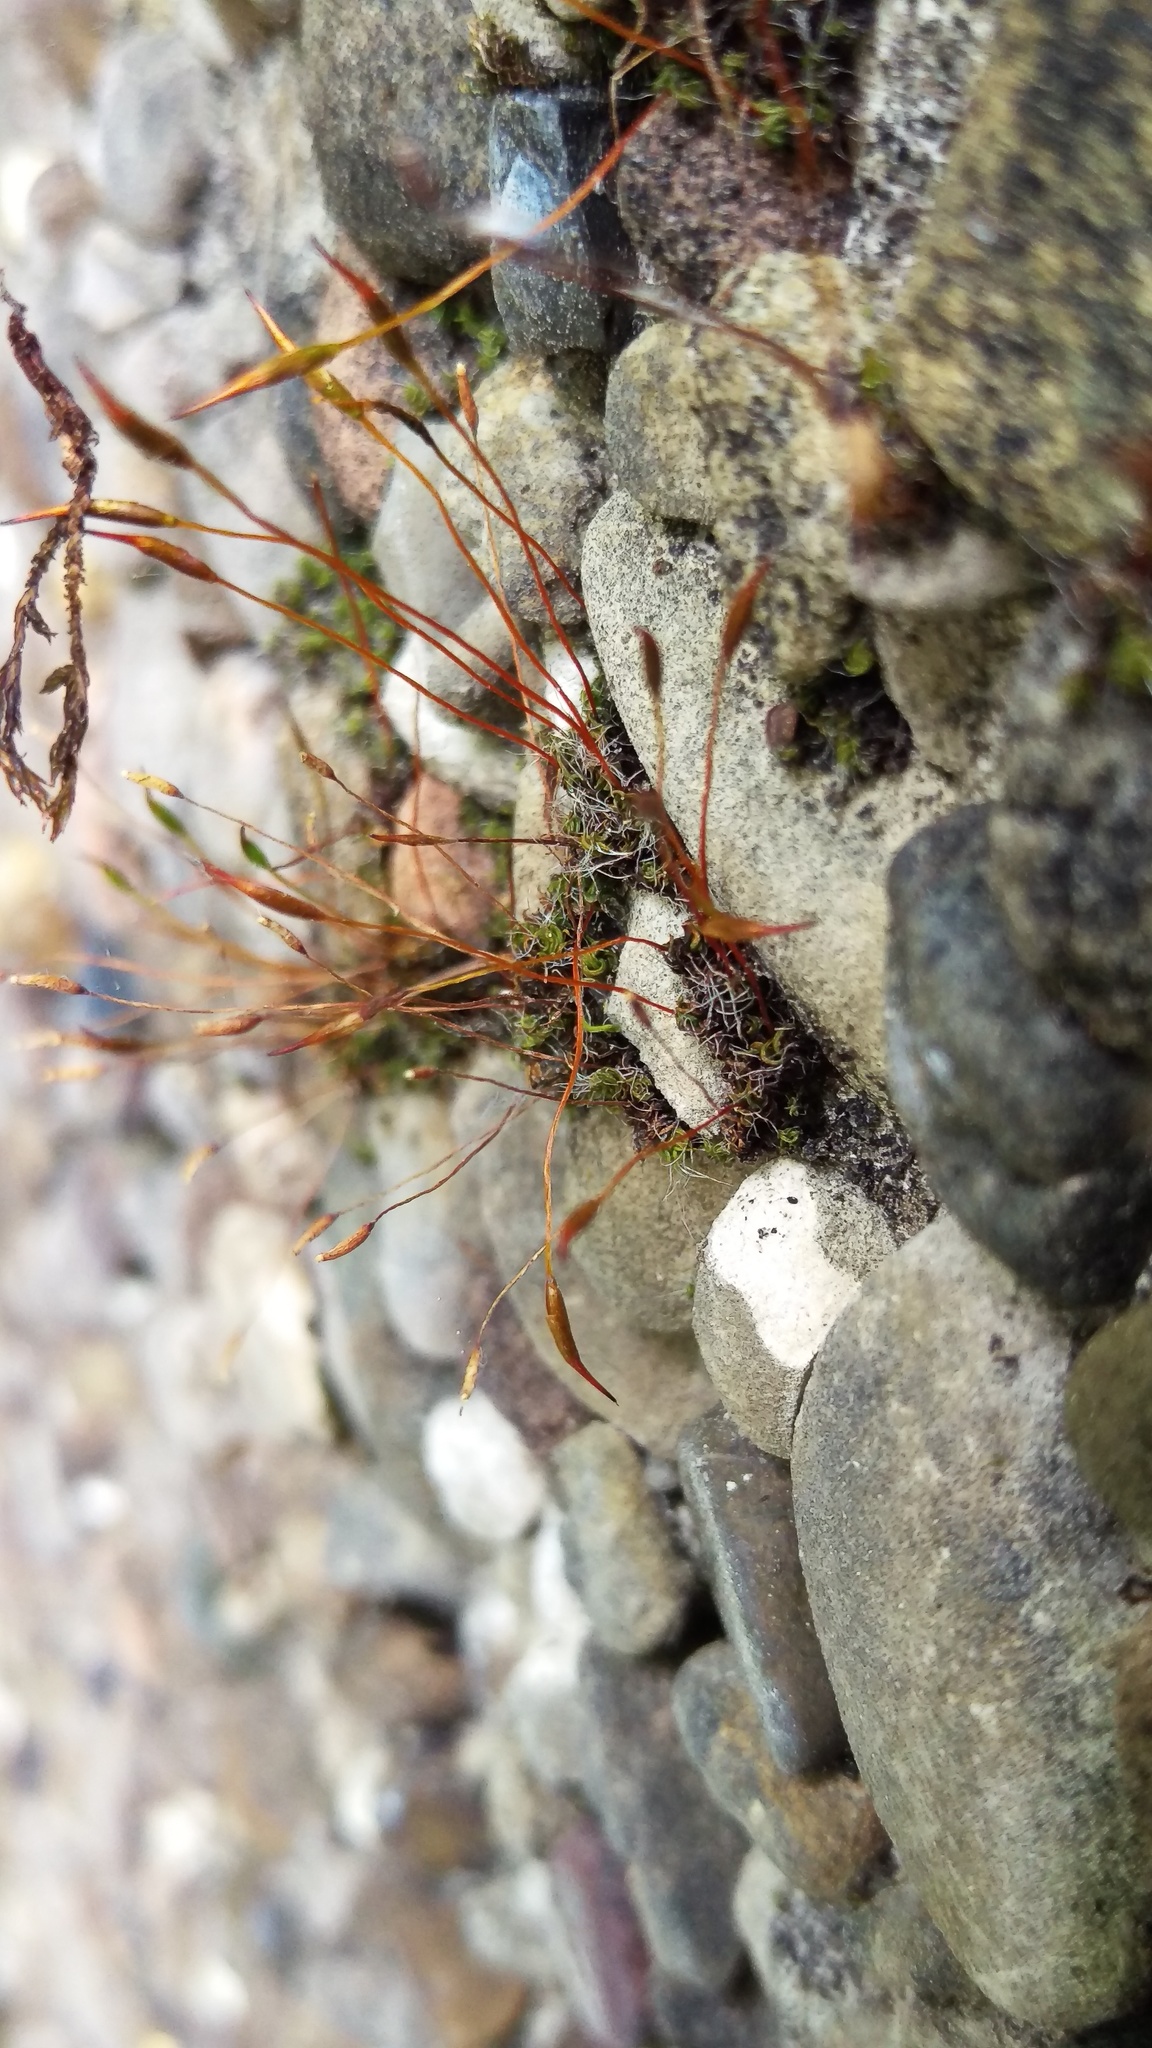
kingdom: Plantae
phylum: Bryophyta
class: Bryopsida
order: Pottiales
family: Pottiaceae
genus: Tortula
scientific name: Tortula muralis
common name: Wall screw-moss
